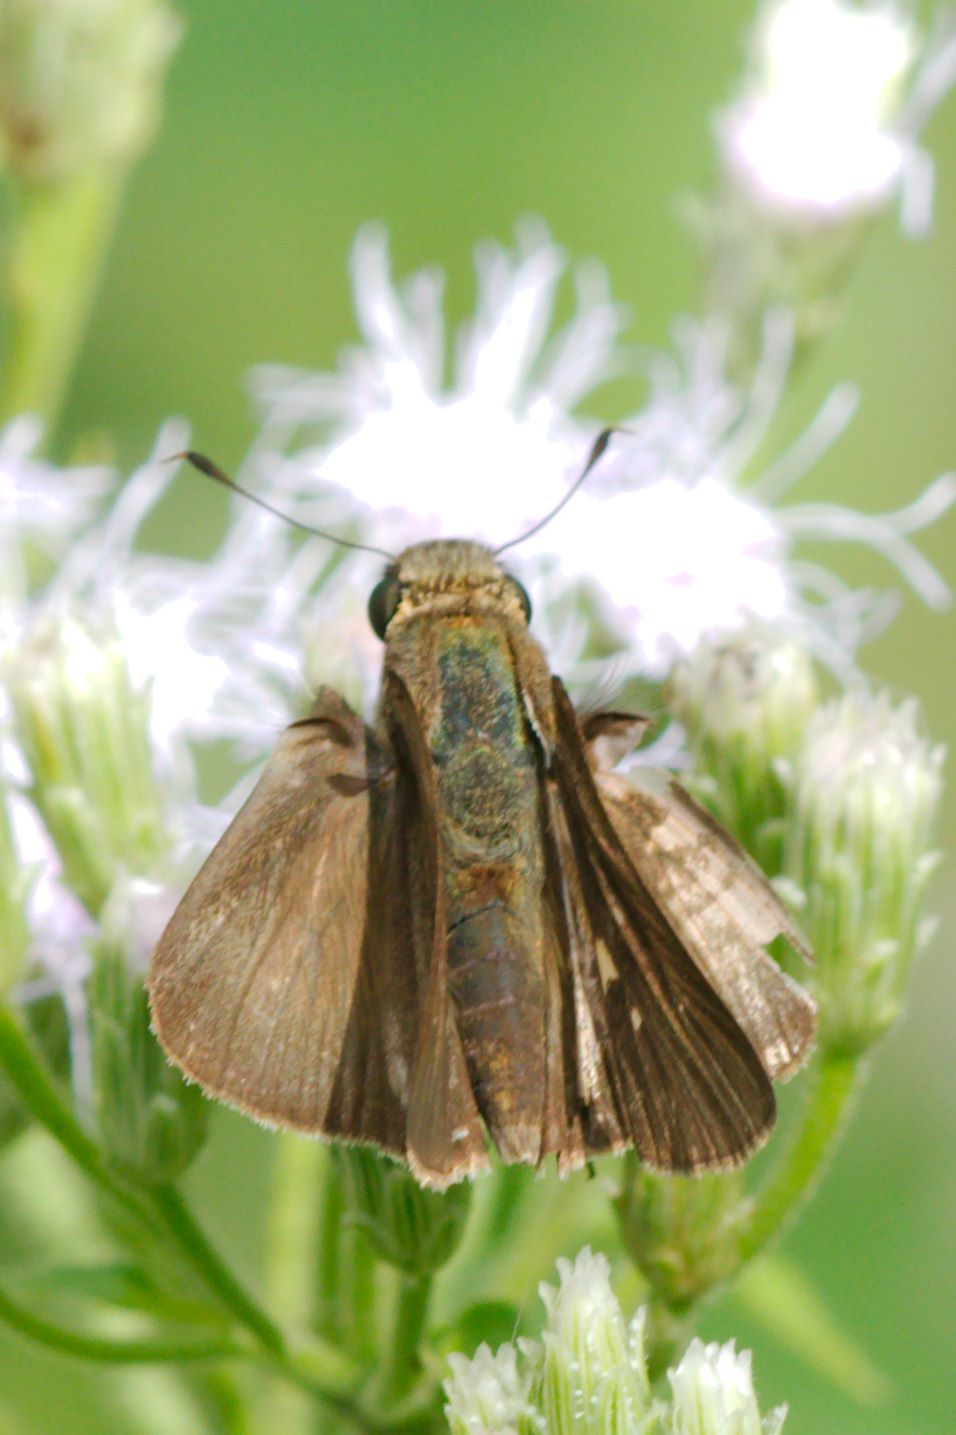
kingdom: Animalia
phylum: Arthropoda
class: Insecta
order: Lepidoptera
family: Hesperiidae
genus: Panoquina
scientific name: Panoquina ocola
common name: Ocola skipper
